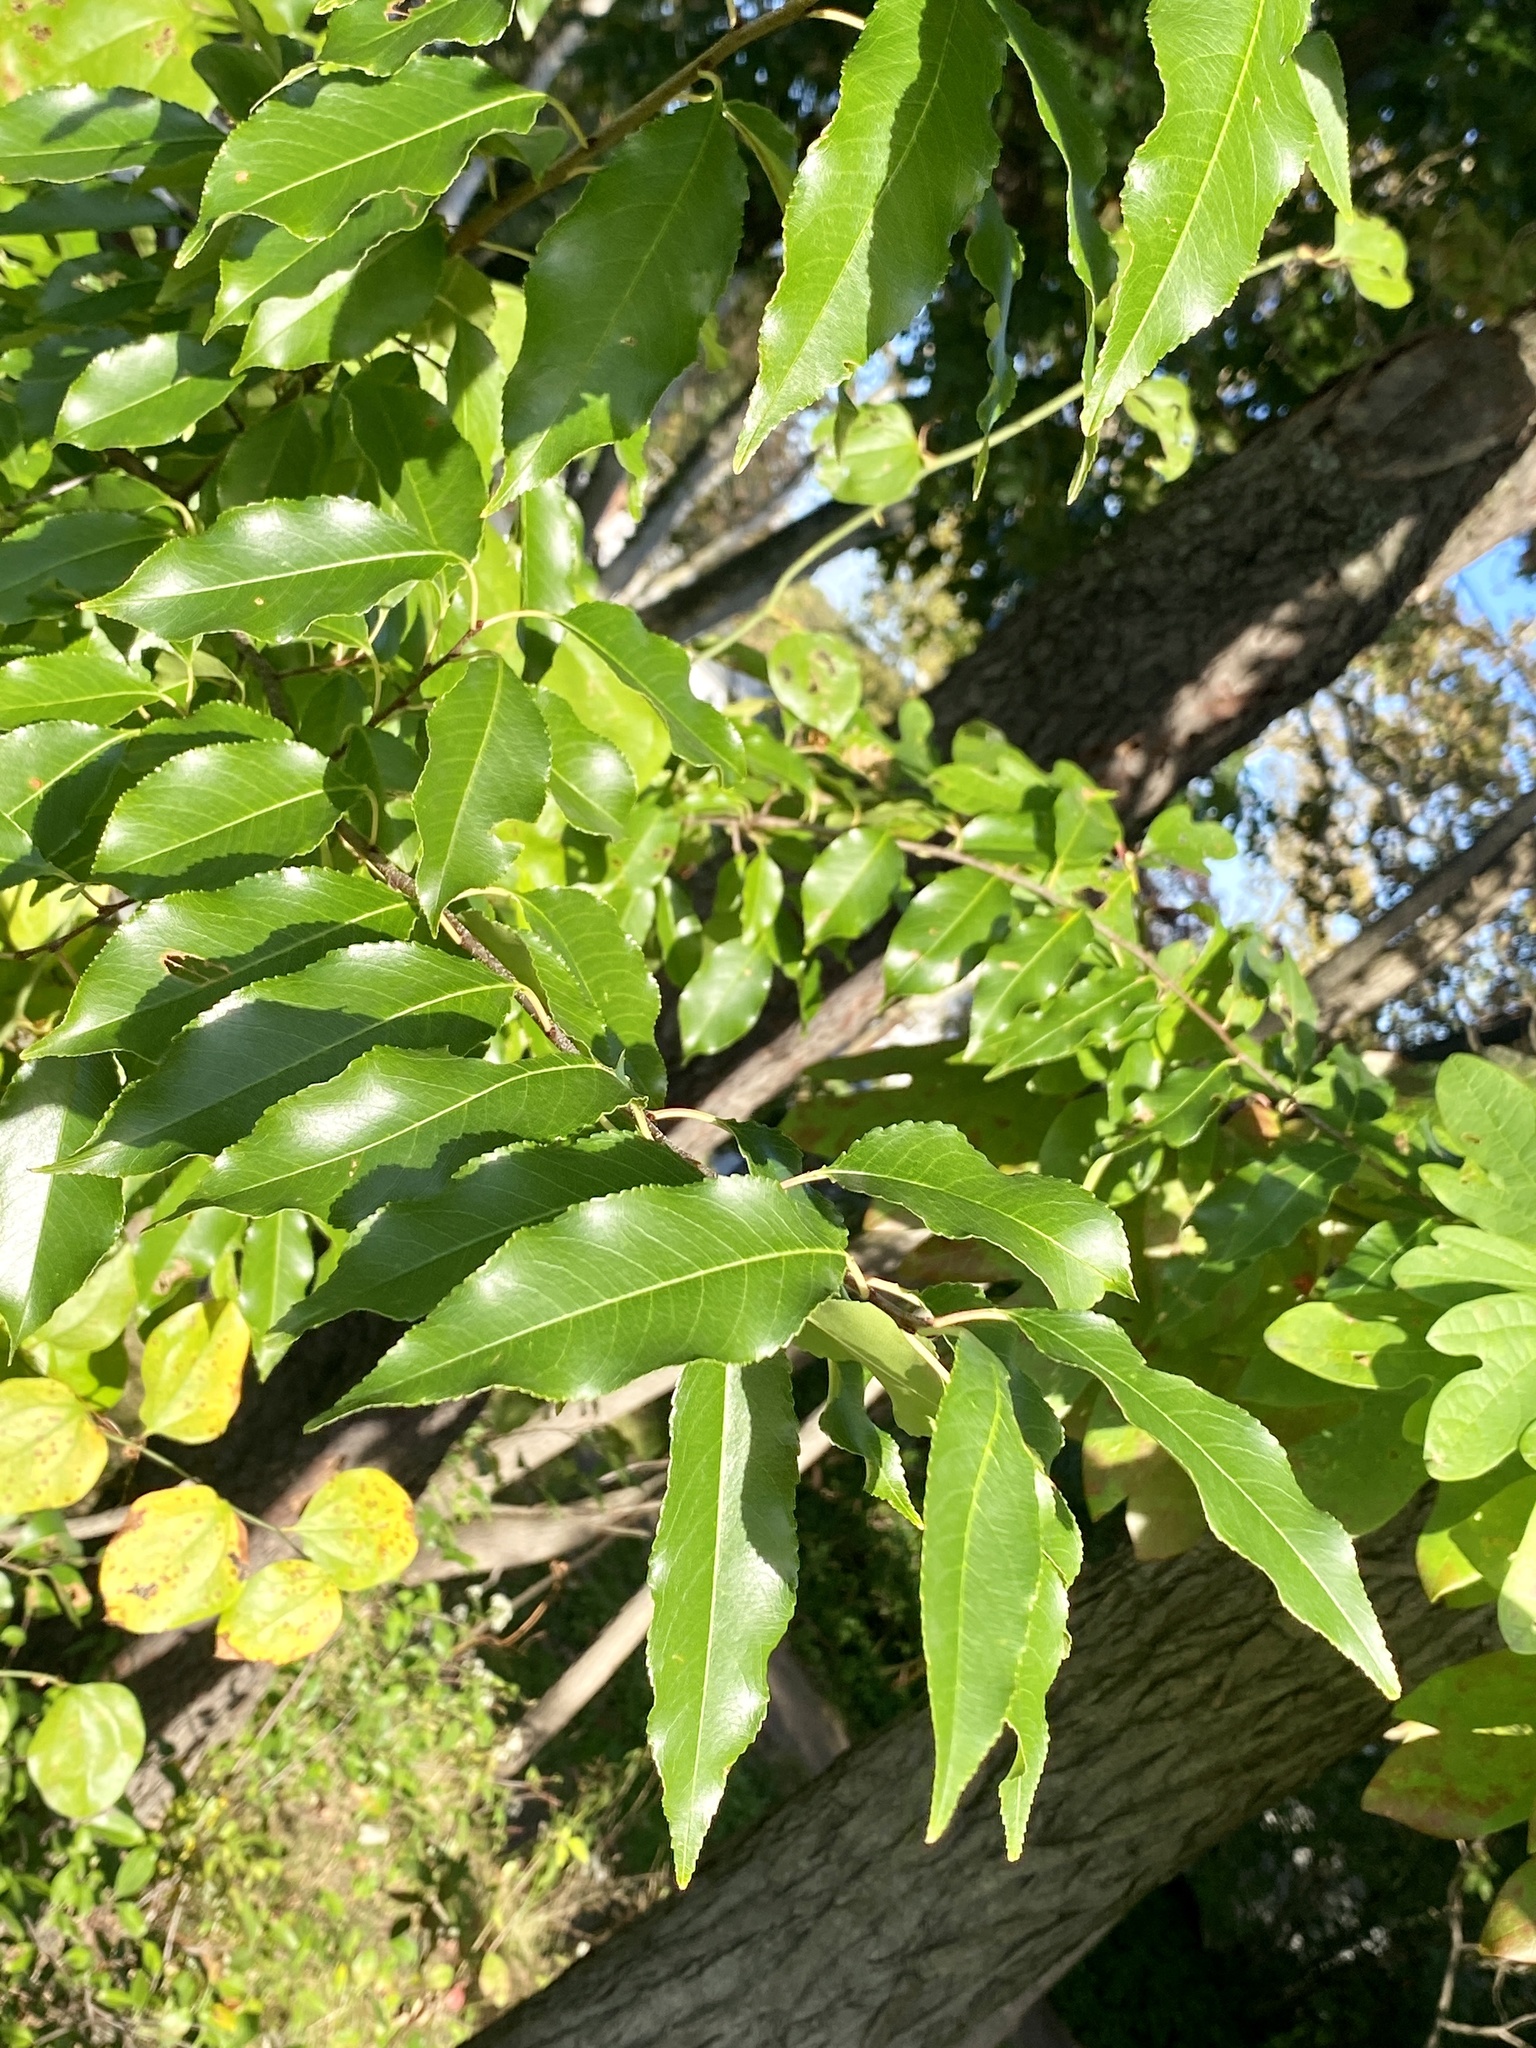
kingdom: Plantae
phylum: Tracheophyta
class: Magnoliopsida
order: Rosales
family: Rosaceae
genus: Prunus
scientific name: Prunus serotina
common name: Black cherry
